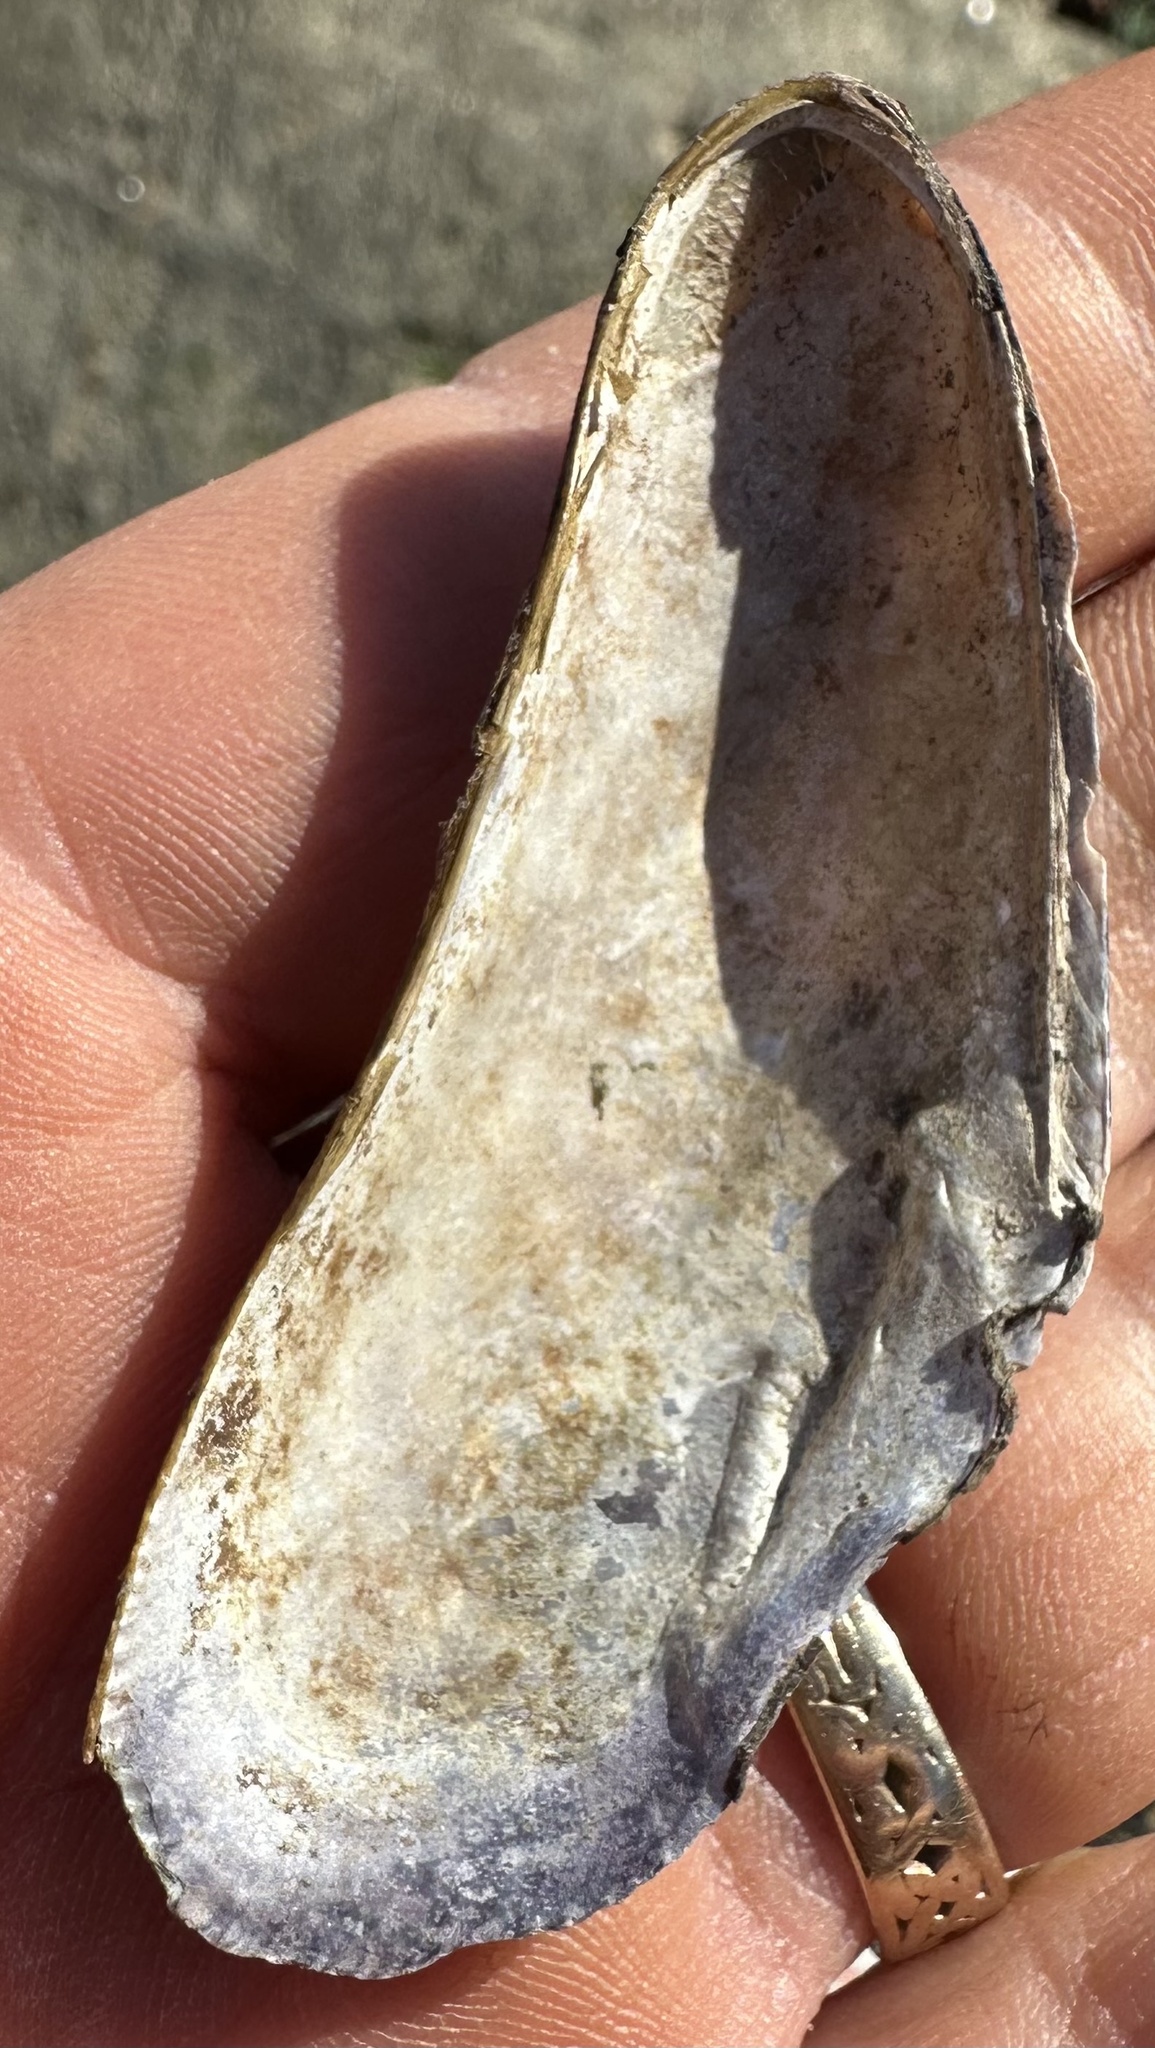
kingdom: Animalia
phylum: Mollusca
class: Bivalvia
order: Mytilida
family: Mytilidae
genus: Geukensia
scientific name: Geukensia demissa
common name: Ribbed mussel
